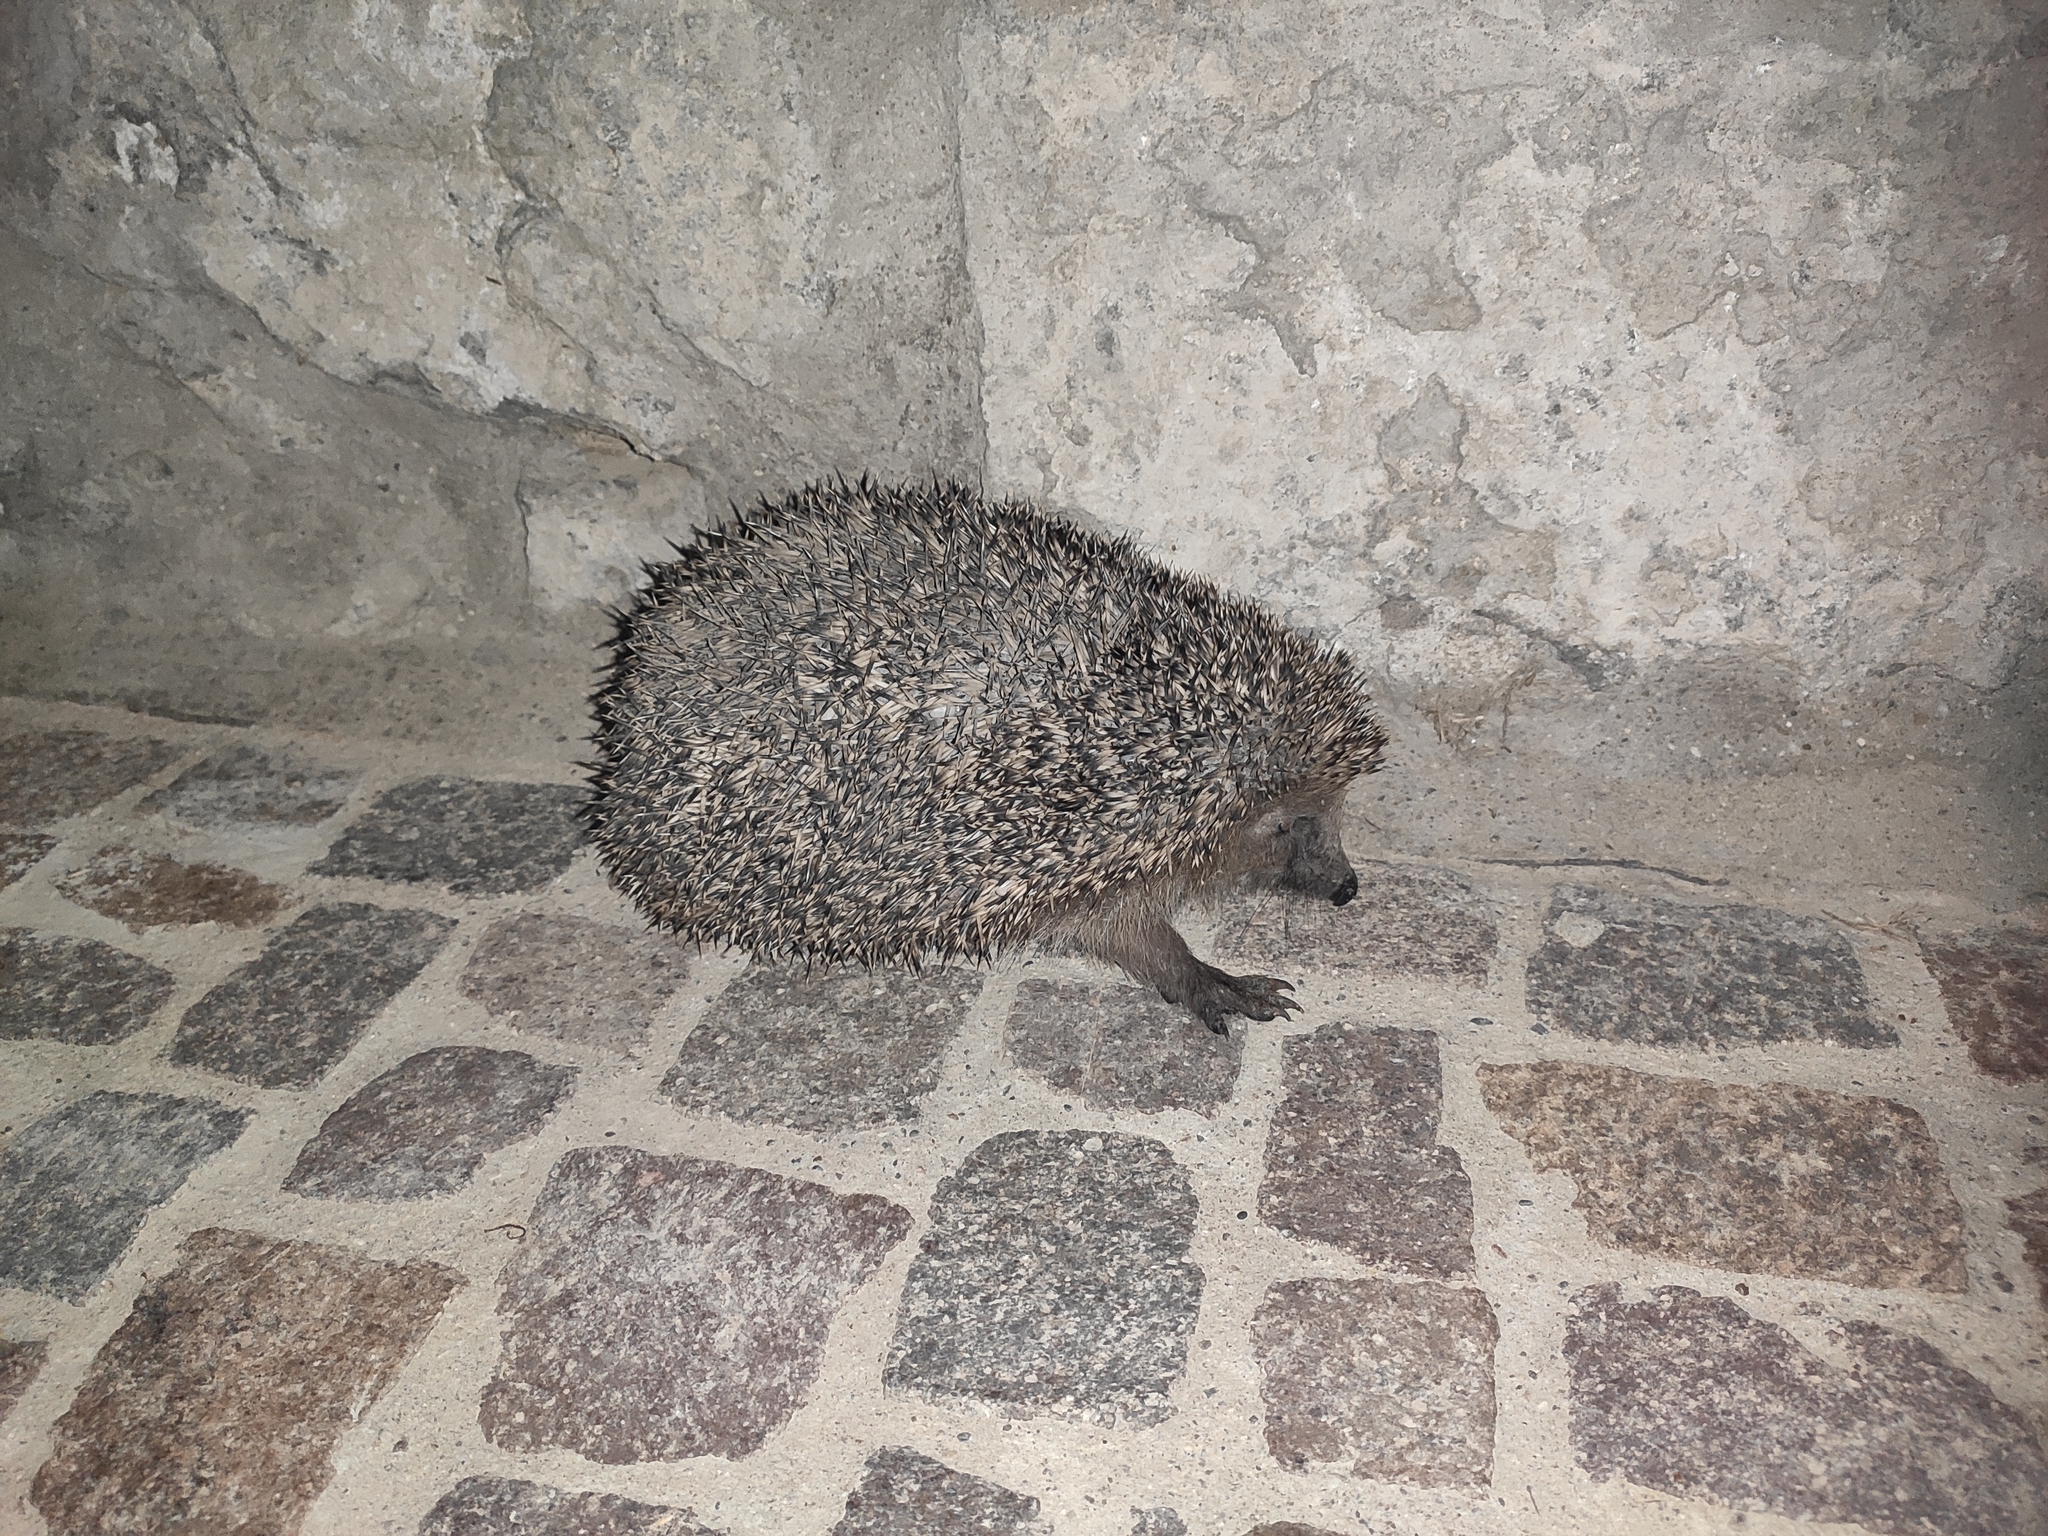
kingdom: Animalia
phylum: Chordata
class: Mammalia
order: Erinaceomorpha
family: Erinaceidae
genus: Erinaceus
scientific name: Erinaceus europaeus
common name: West european hedgehog
